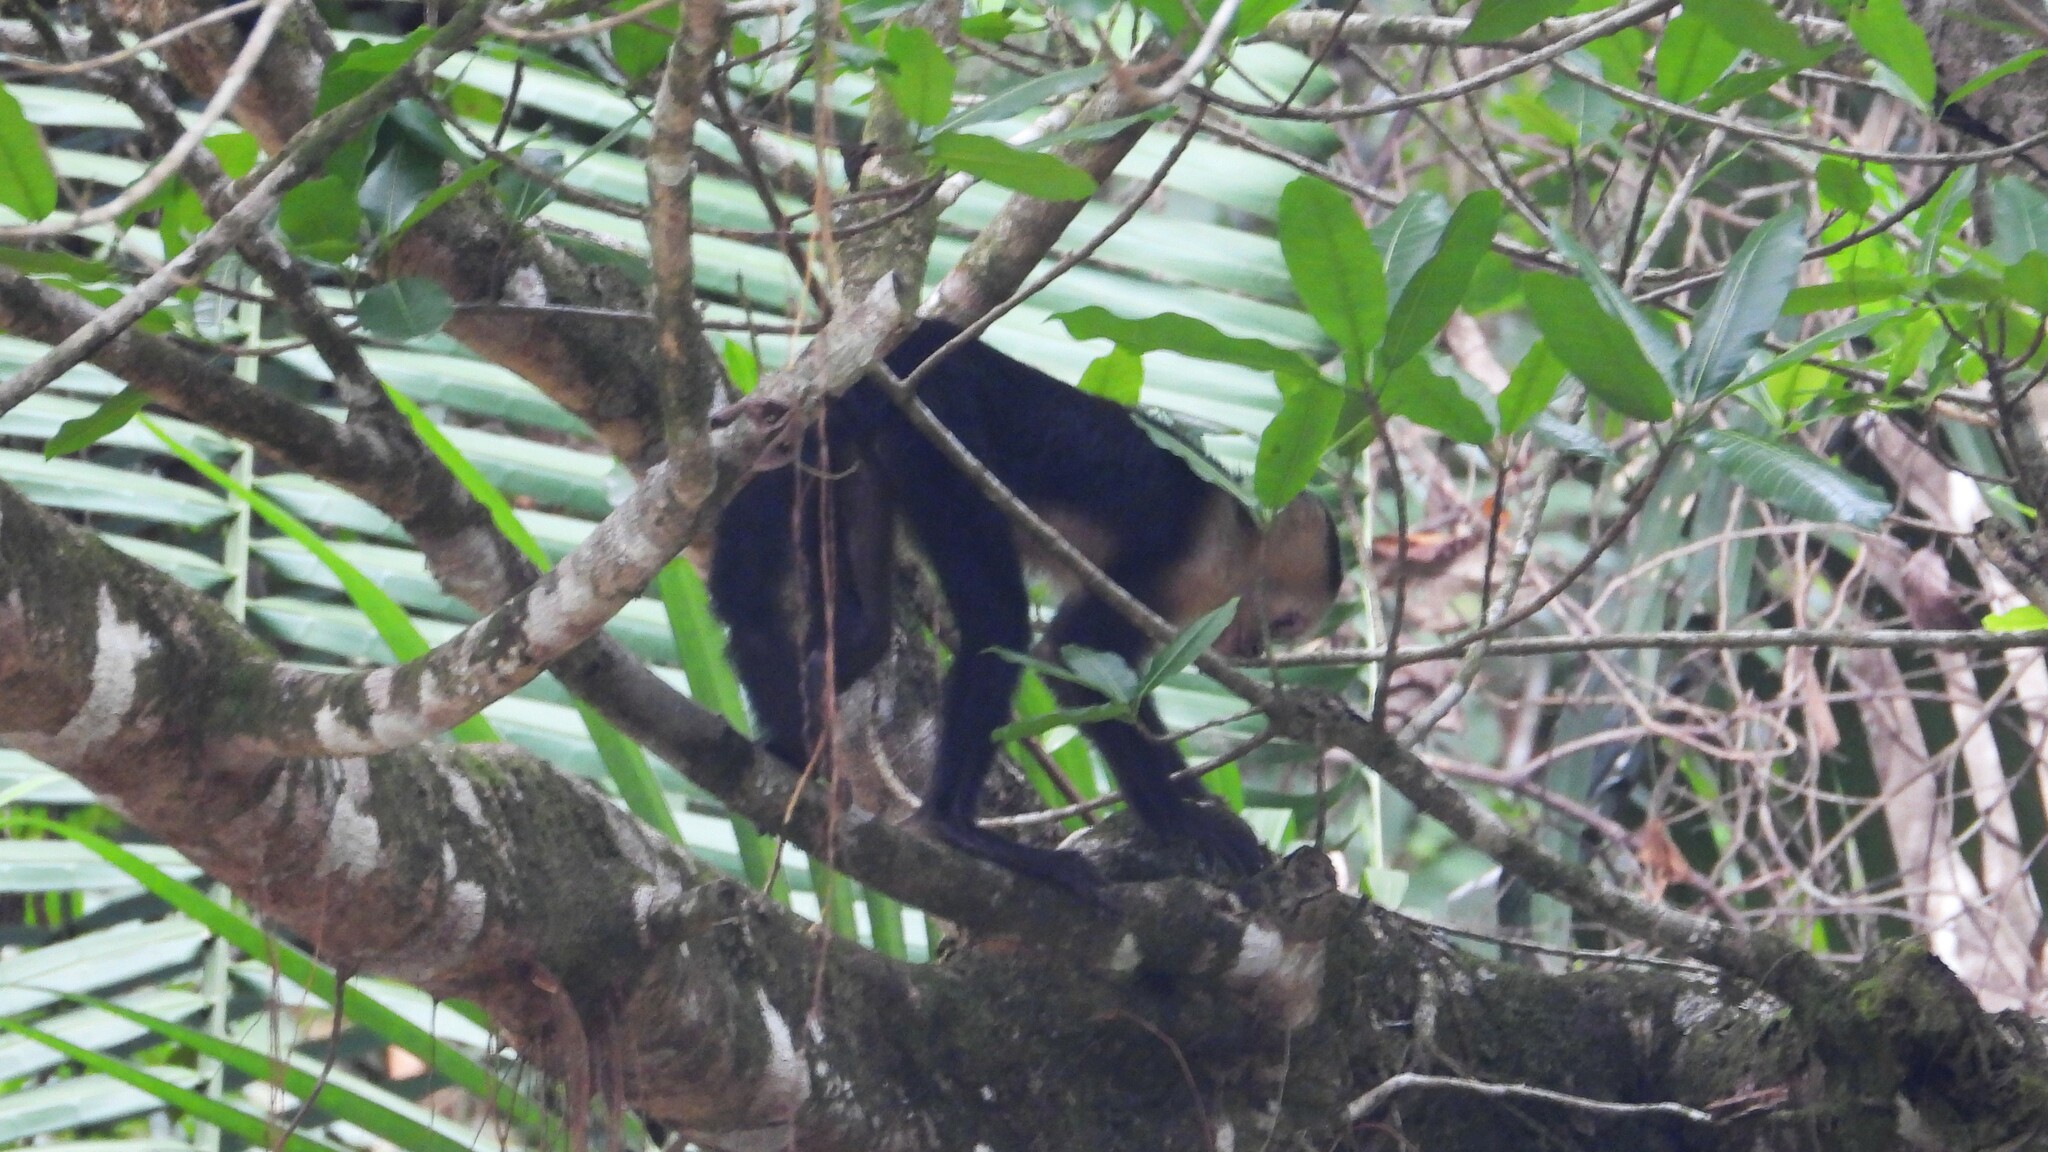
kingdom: Animalia
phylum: Chordata
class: Mammalia
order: Primates
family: Cebidae
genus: Cebus
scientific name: Cebus imitator
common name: Panamanian white-faced capuchin
